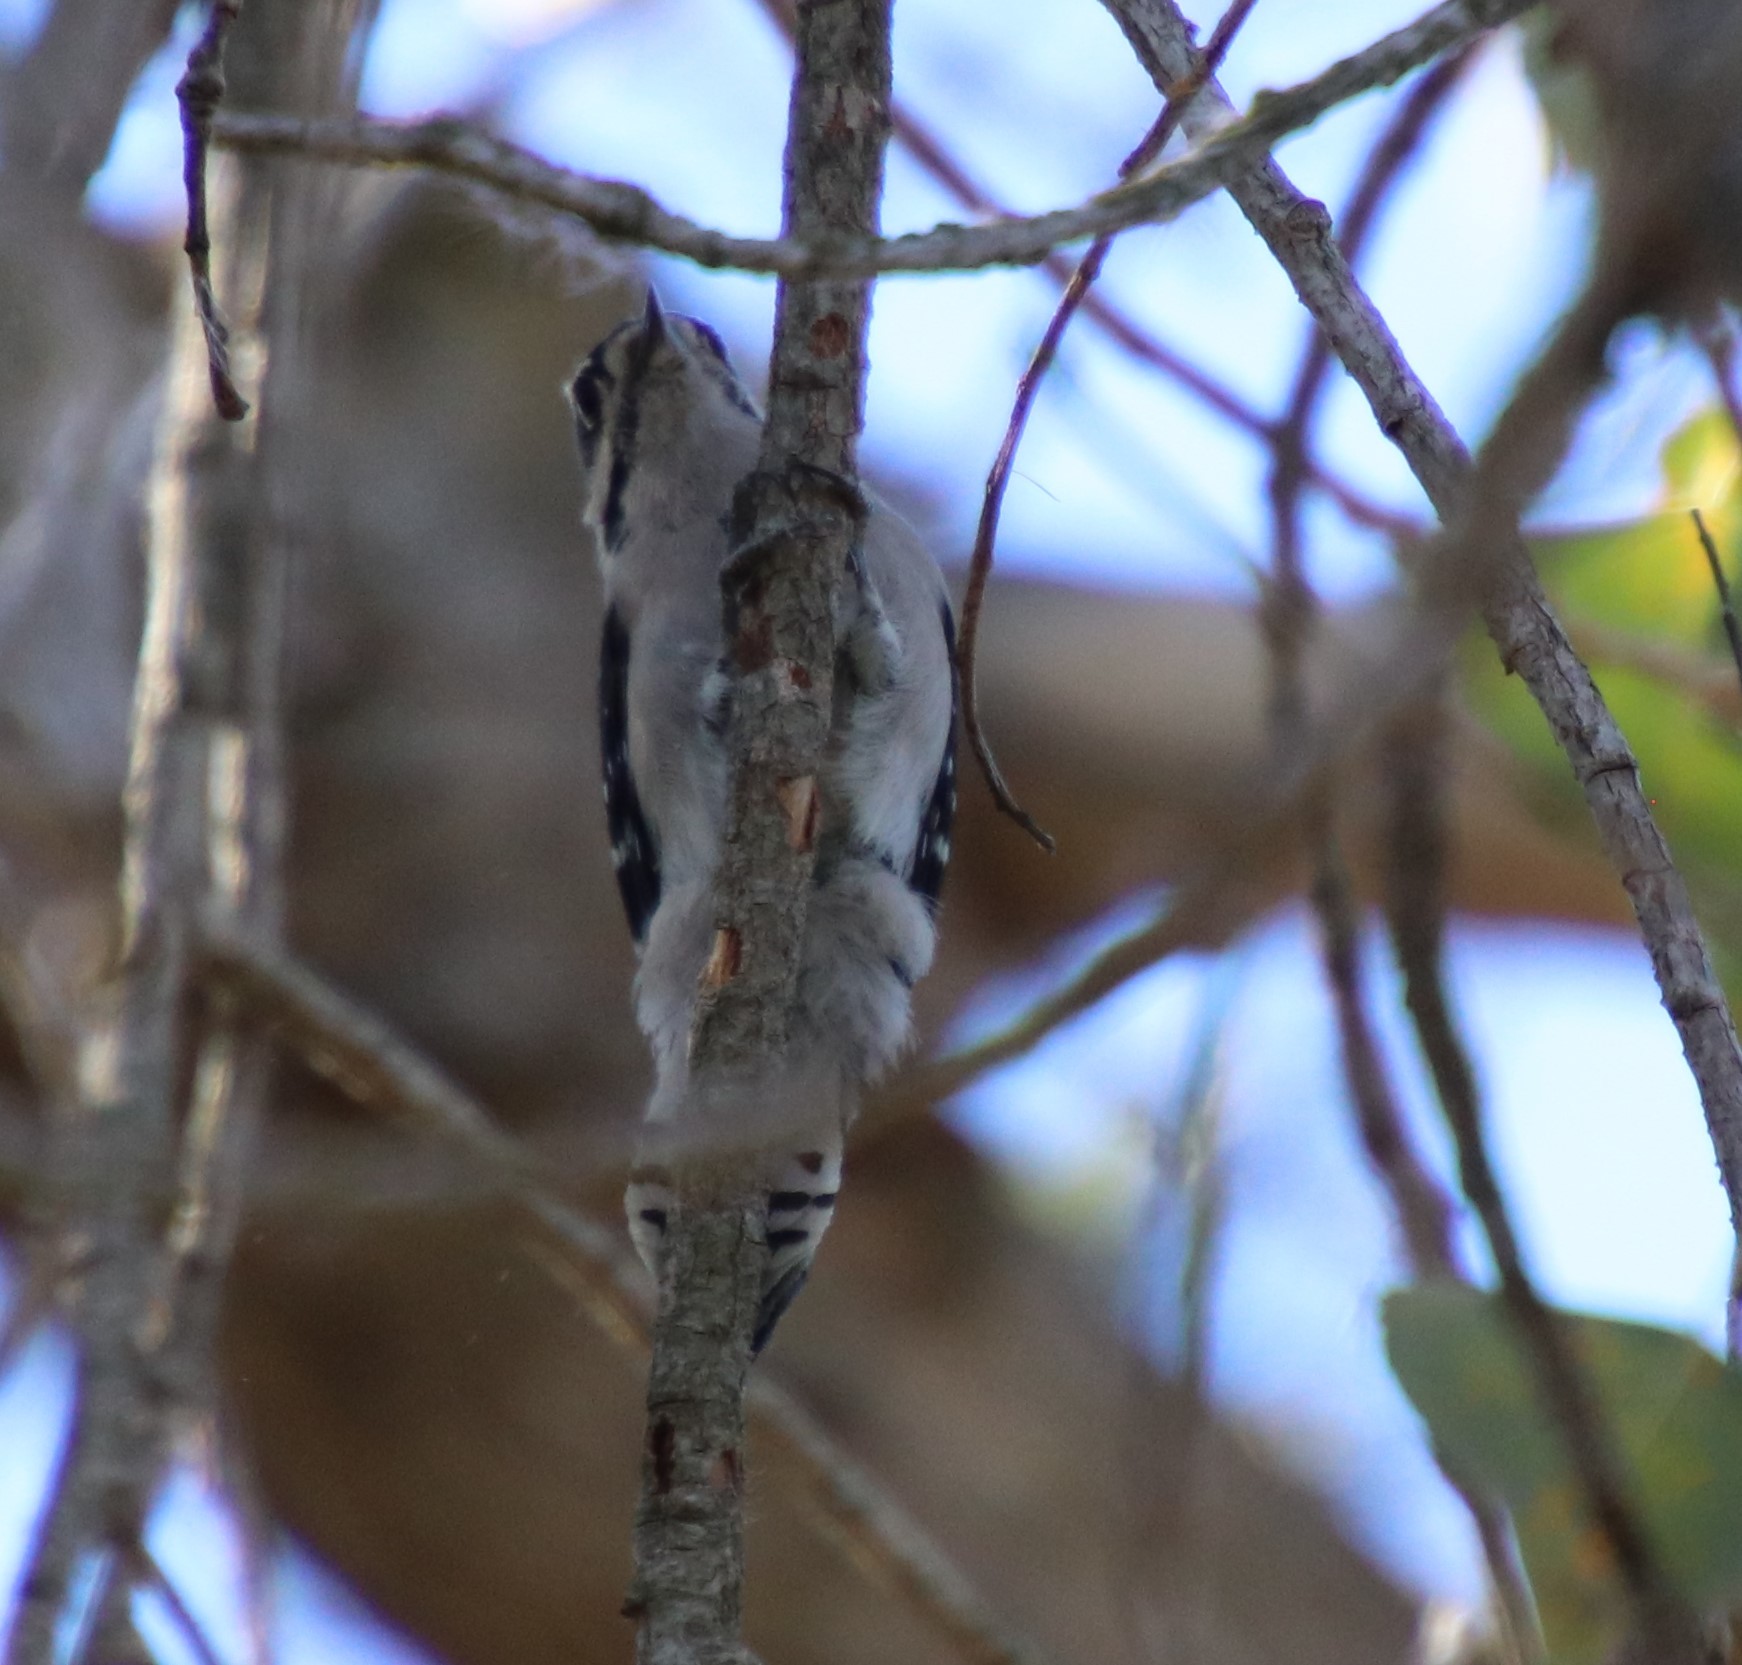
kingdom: Animalia
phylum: Chordata
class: Aves
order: Piciformes
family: Picidae
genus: Dryobates
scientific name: Dryobates pubescens
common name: Downy woodpecker
